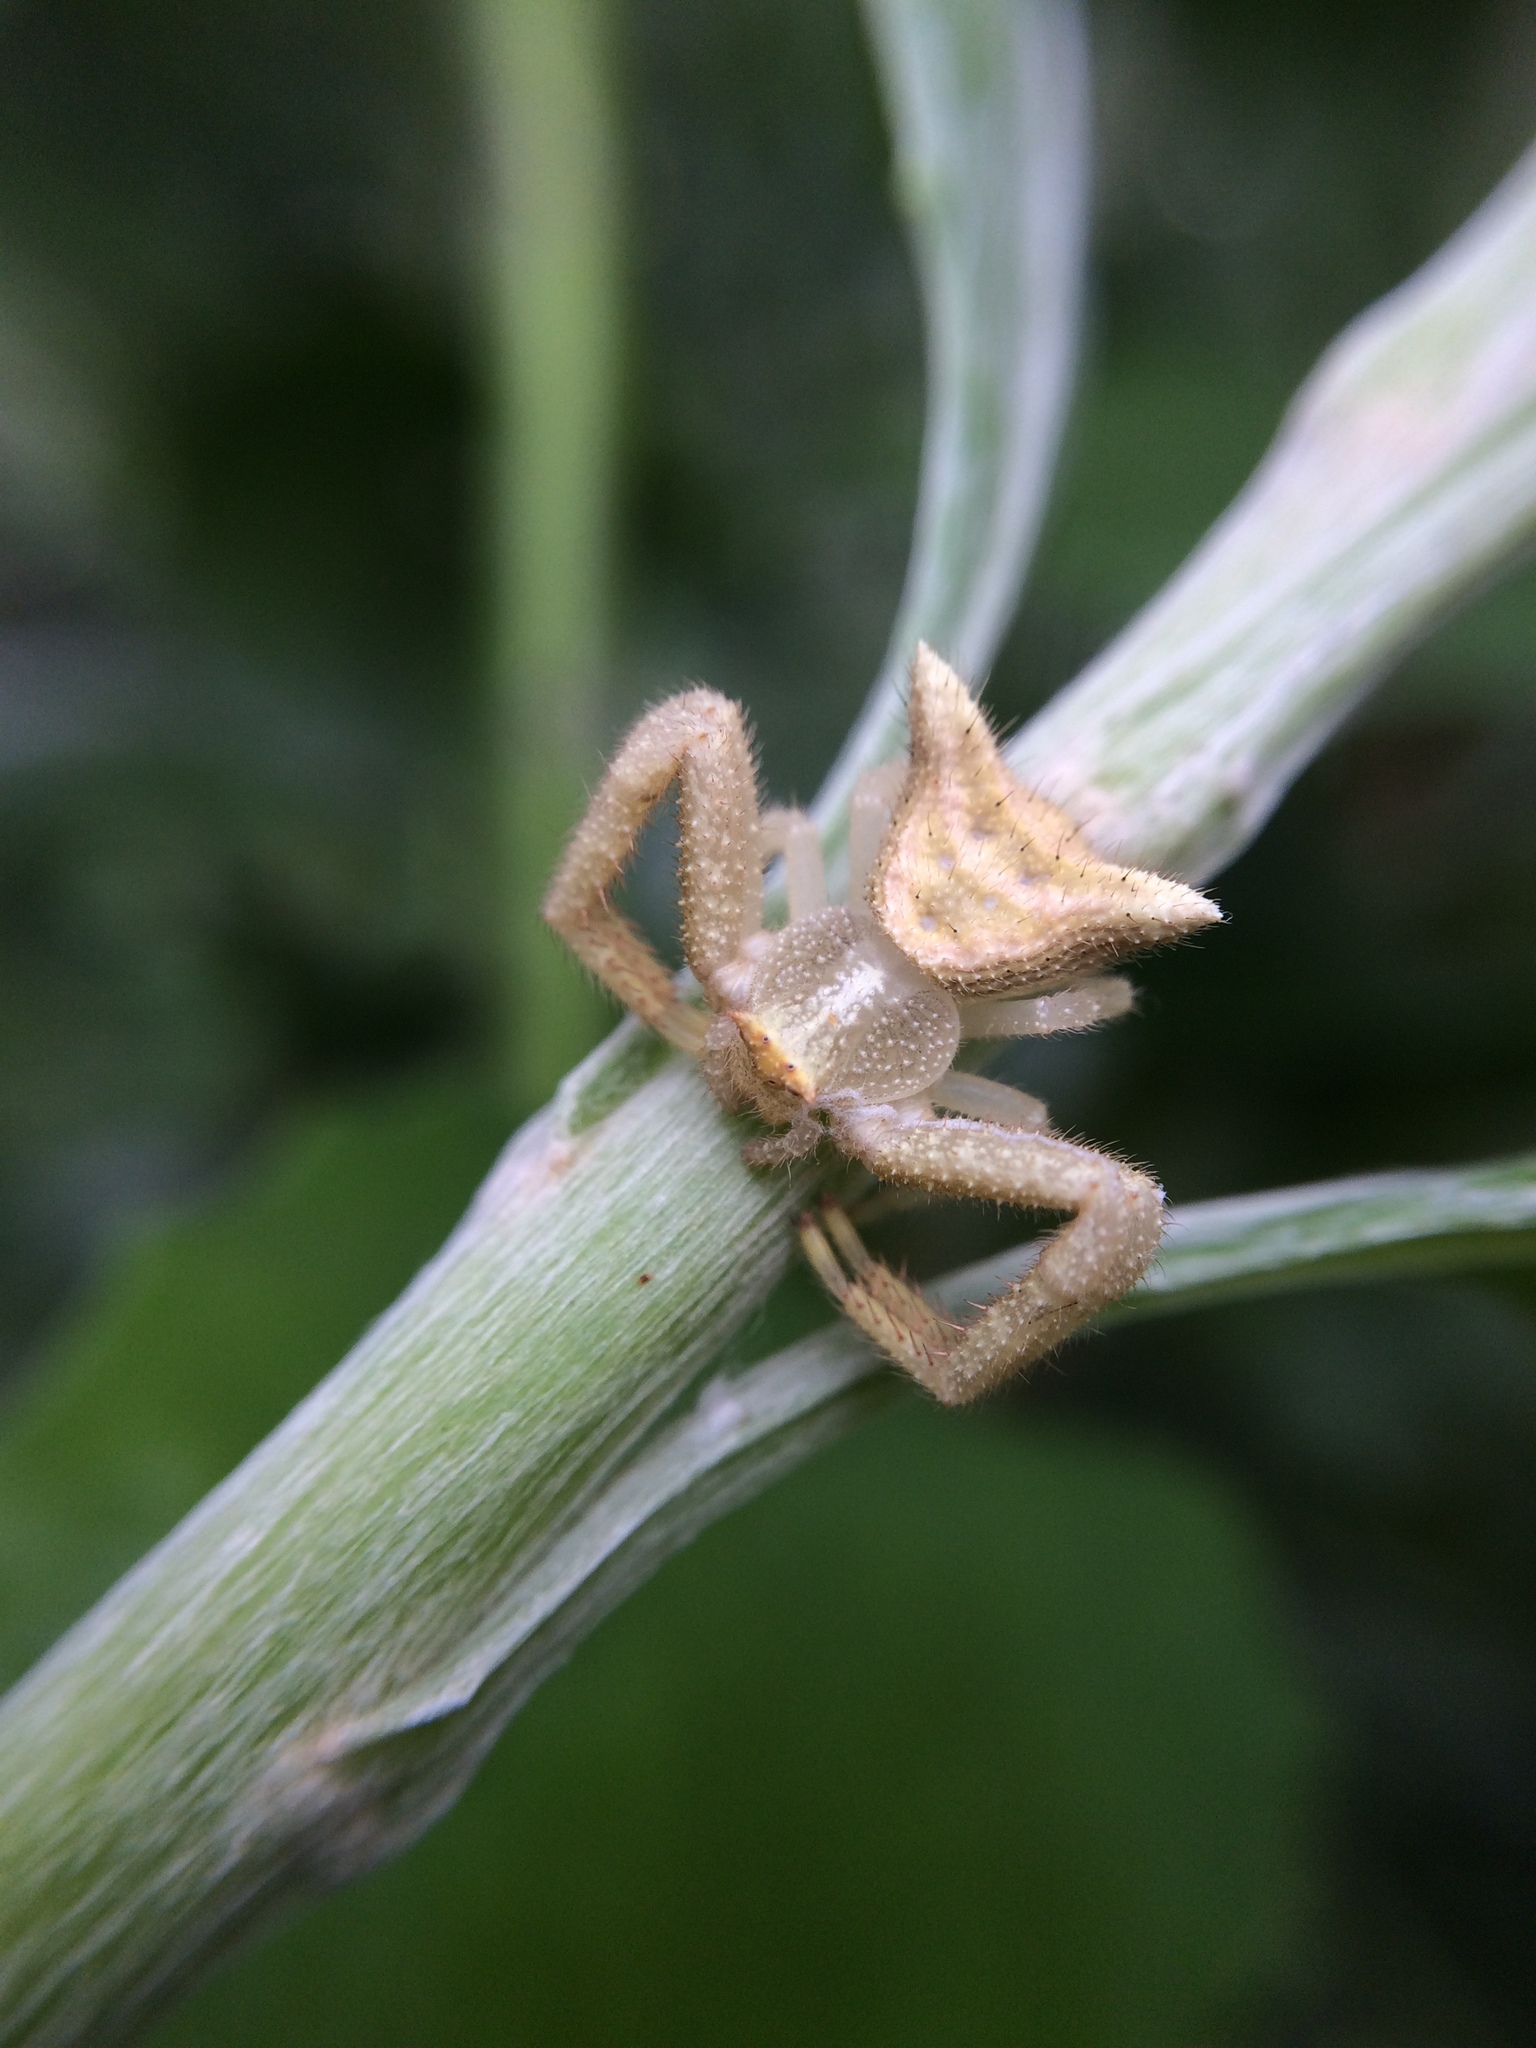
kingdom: Animalia
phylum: Arthropoda
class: Arachnida
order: Araneae
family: Thomisidae
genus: Thomisus
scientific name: Thomisus granulatus
